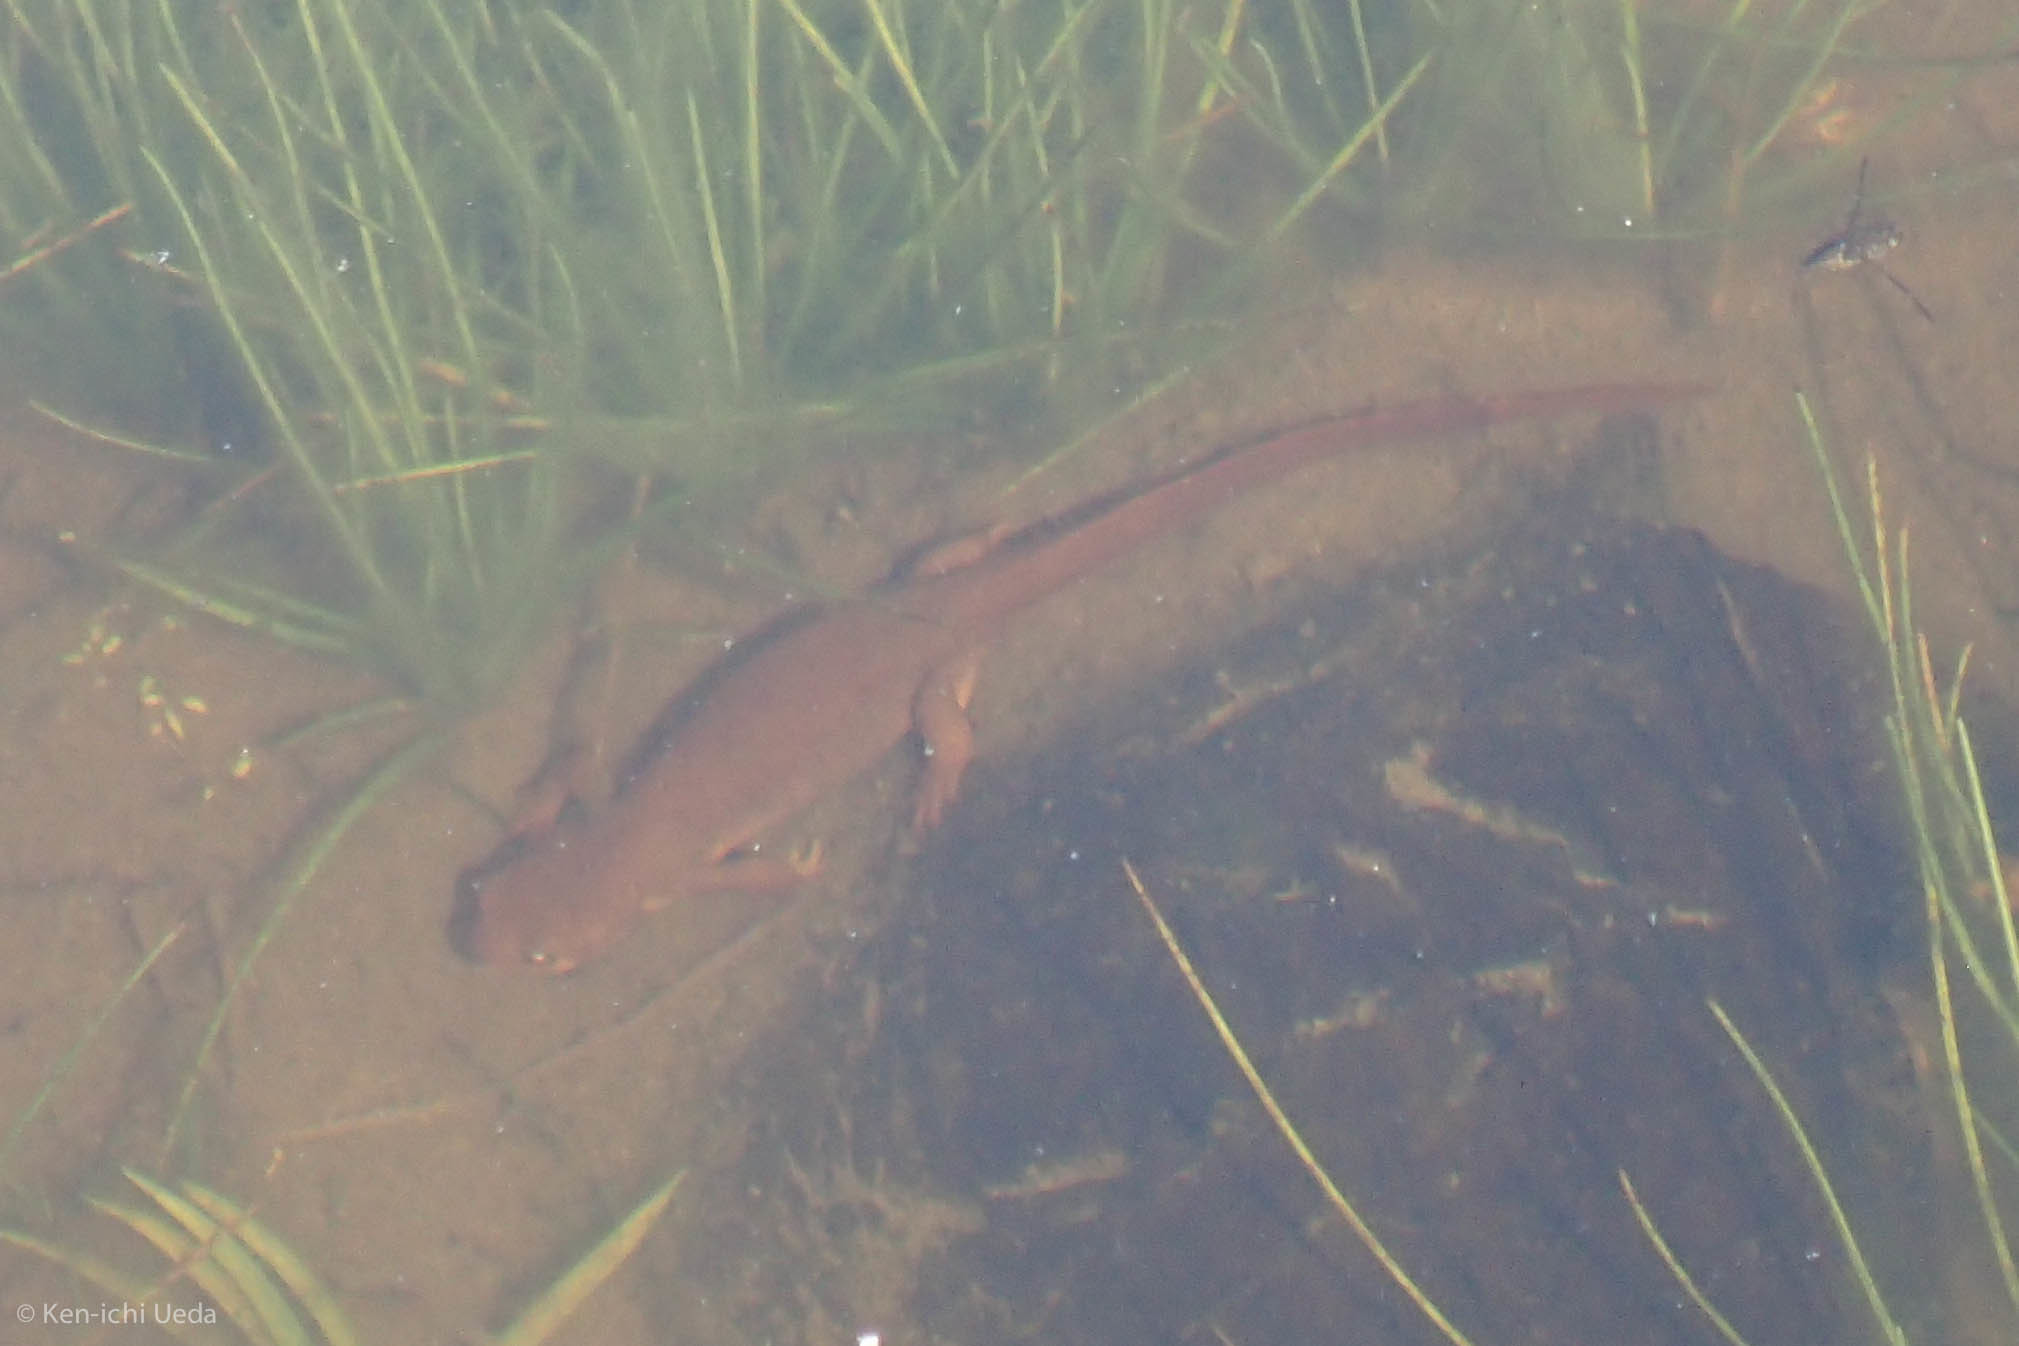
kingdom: Animalia
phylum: Chordata
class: Amphibia
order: Caudata
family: Salamandridae
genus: Taricha
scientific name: Taricha granulosa
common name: Roughskin newt
